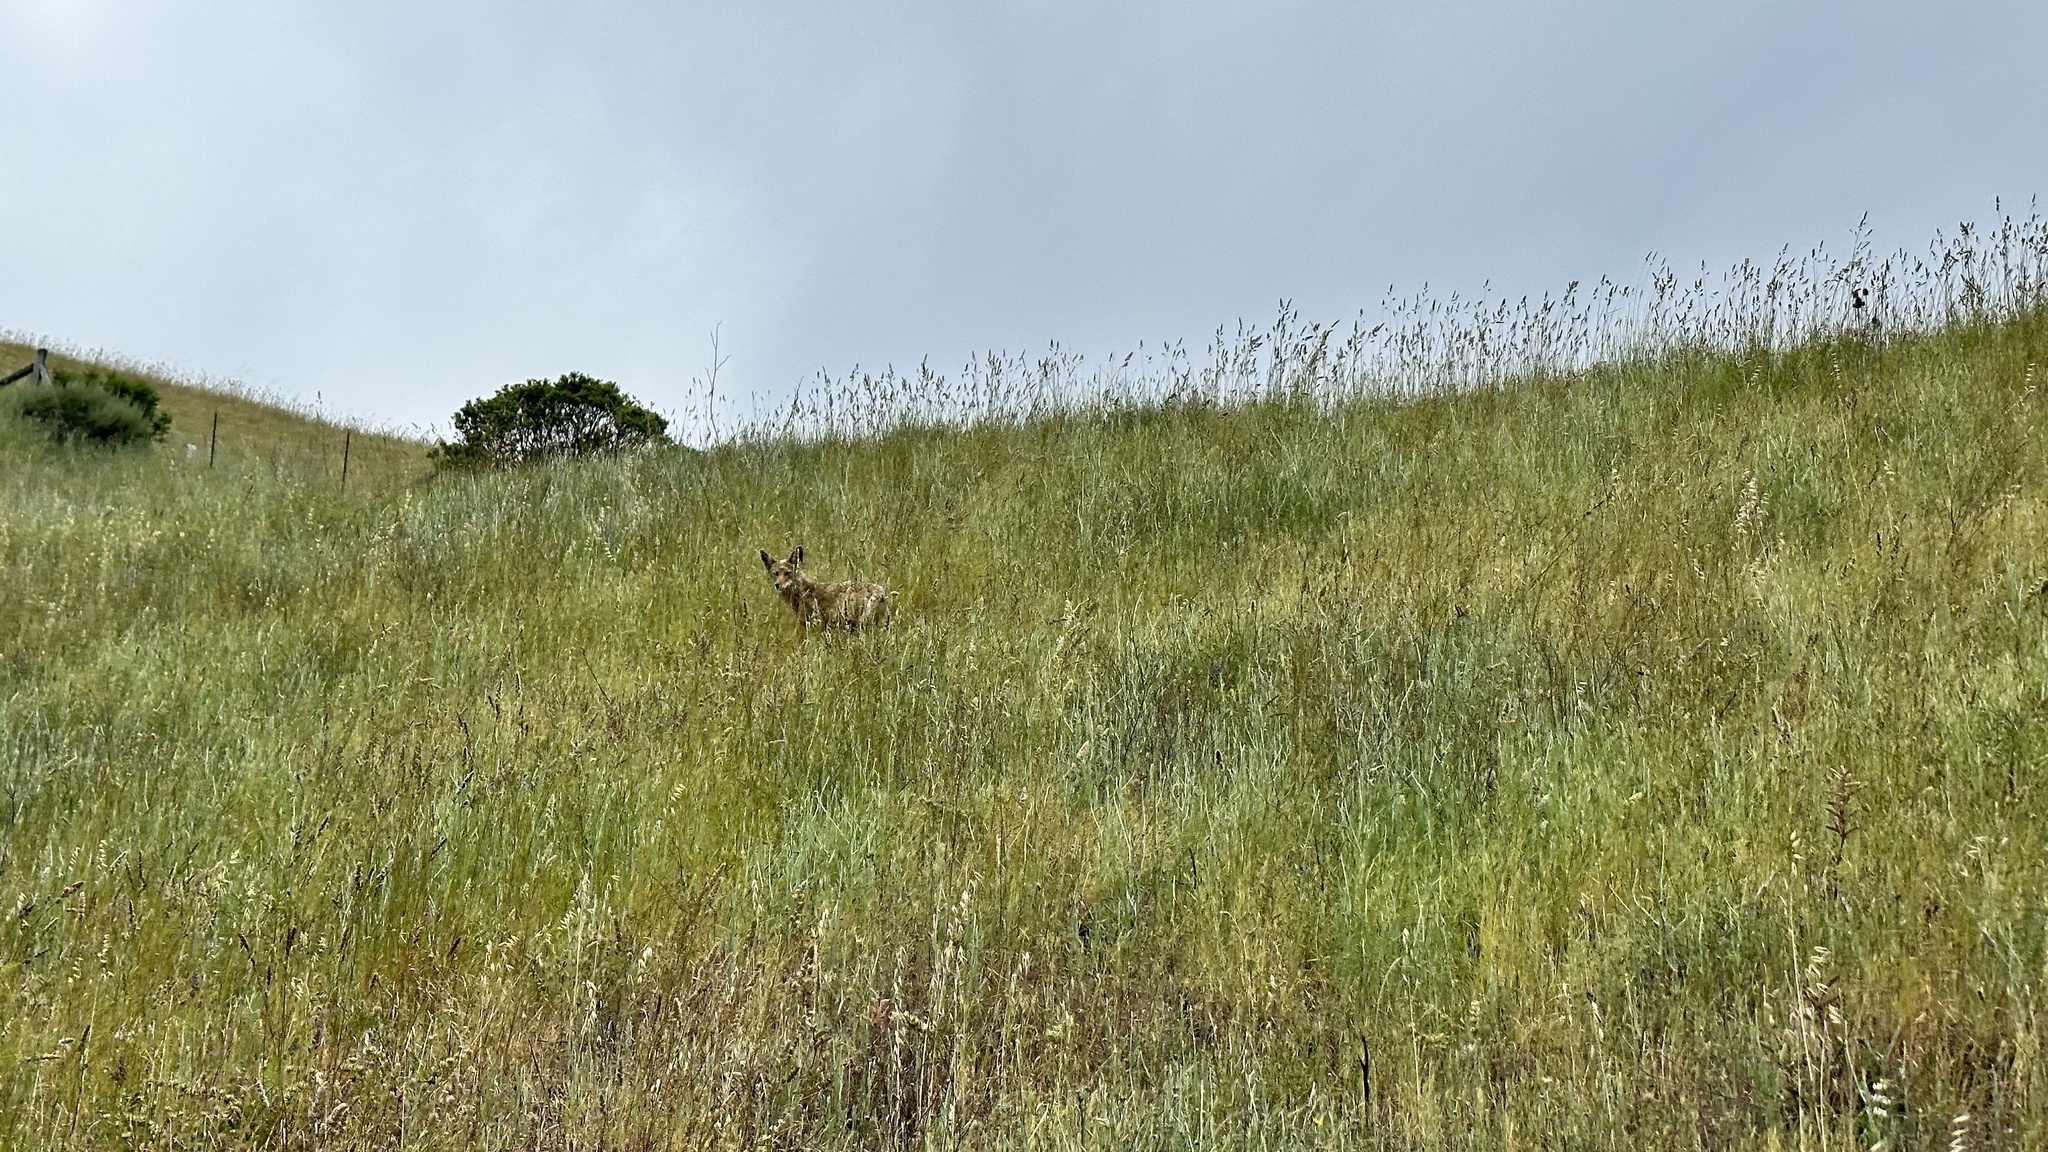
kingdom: Animalia
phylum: Chordata
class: Mammalia
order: Carnivora
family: Canidae
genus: Canis
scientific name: Canis latrans
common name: Coyote
